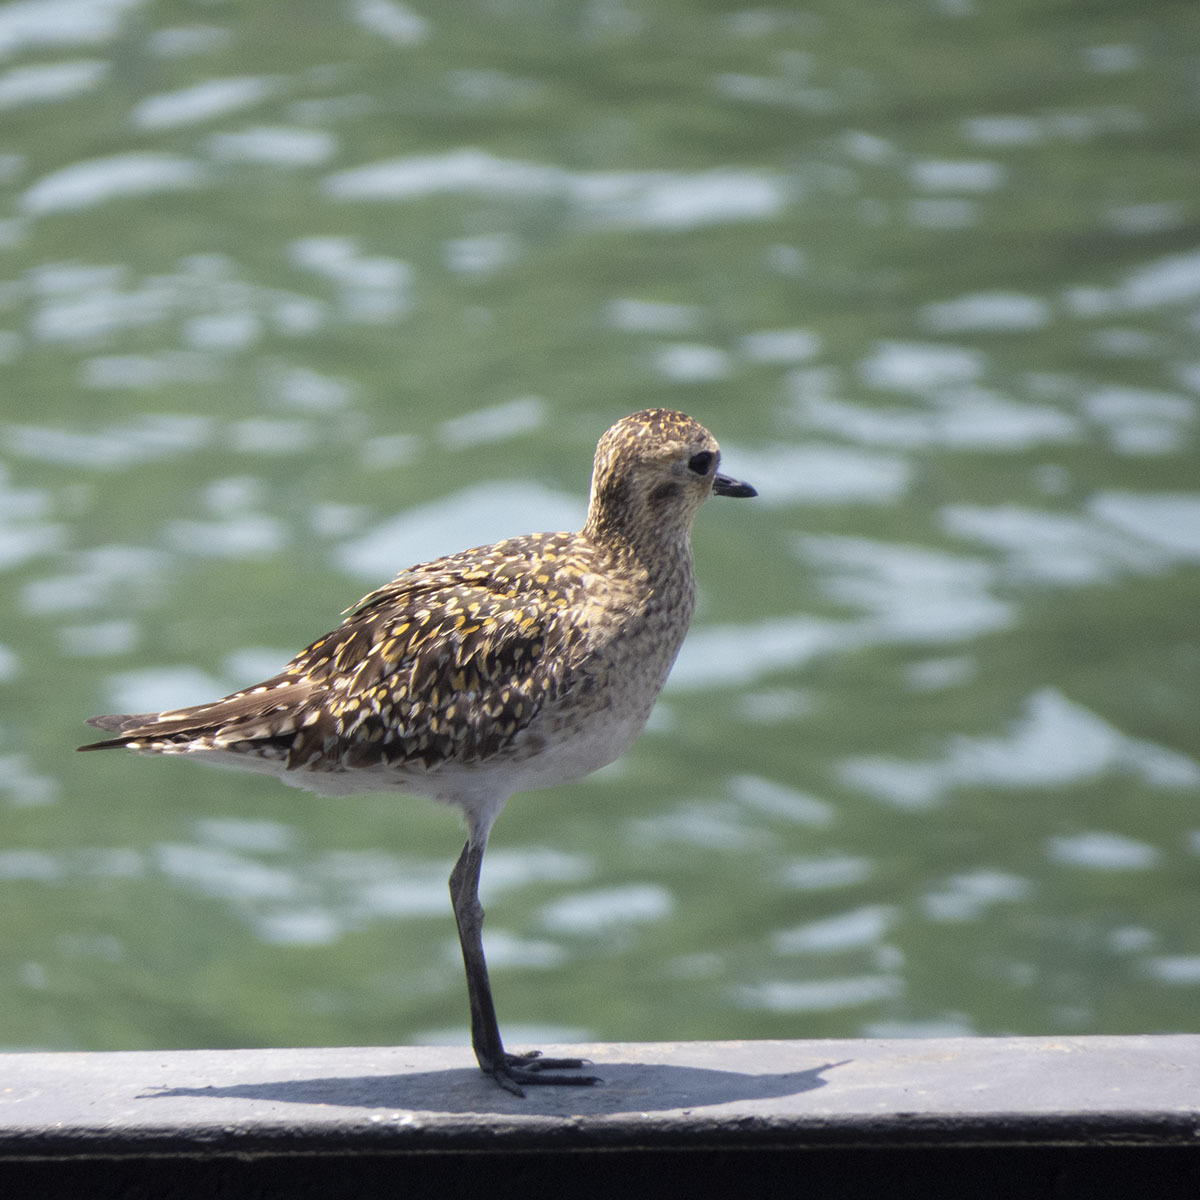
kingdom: Animalia
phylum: Chordata
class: Aves
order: Charadriiformes
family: Charadriidae
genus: Pluvialis
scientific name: Pluvialis fulva
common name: Pacific golden plover
